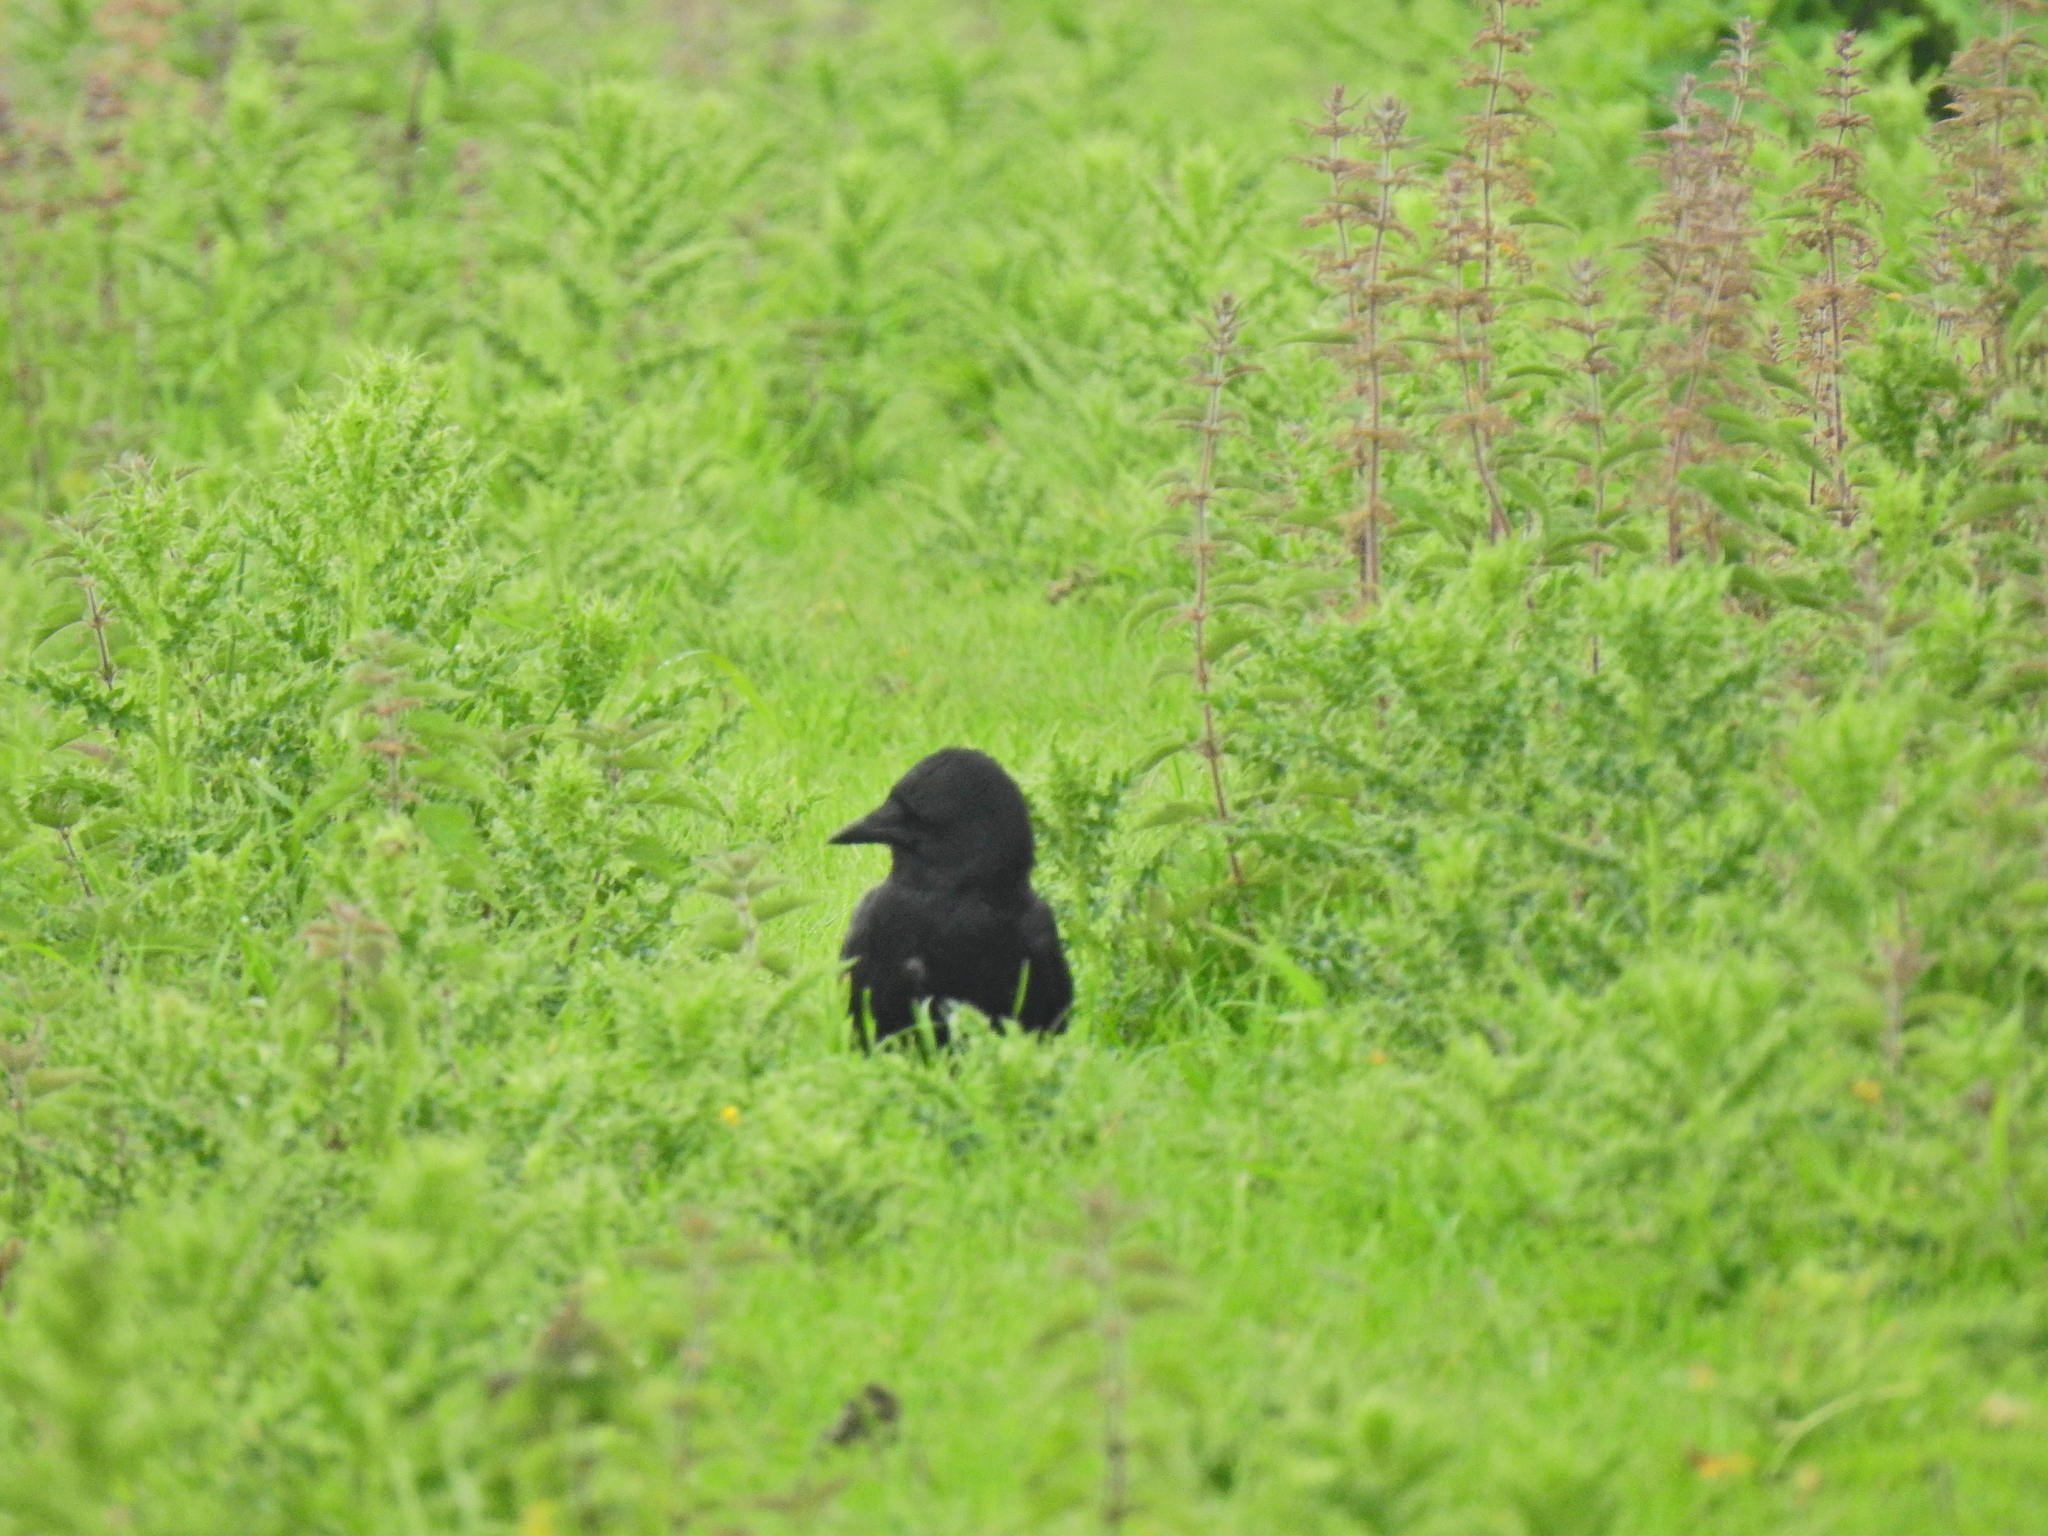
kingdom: Animalia
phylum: Chordata
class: Aves
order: Passeriformes
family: Corvidae
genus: Corvus
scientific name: Corvus corone
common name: Carrion crow
